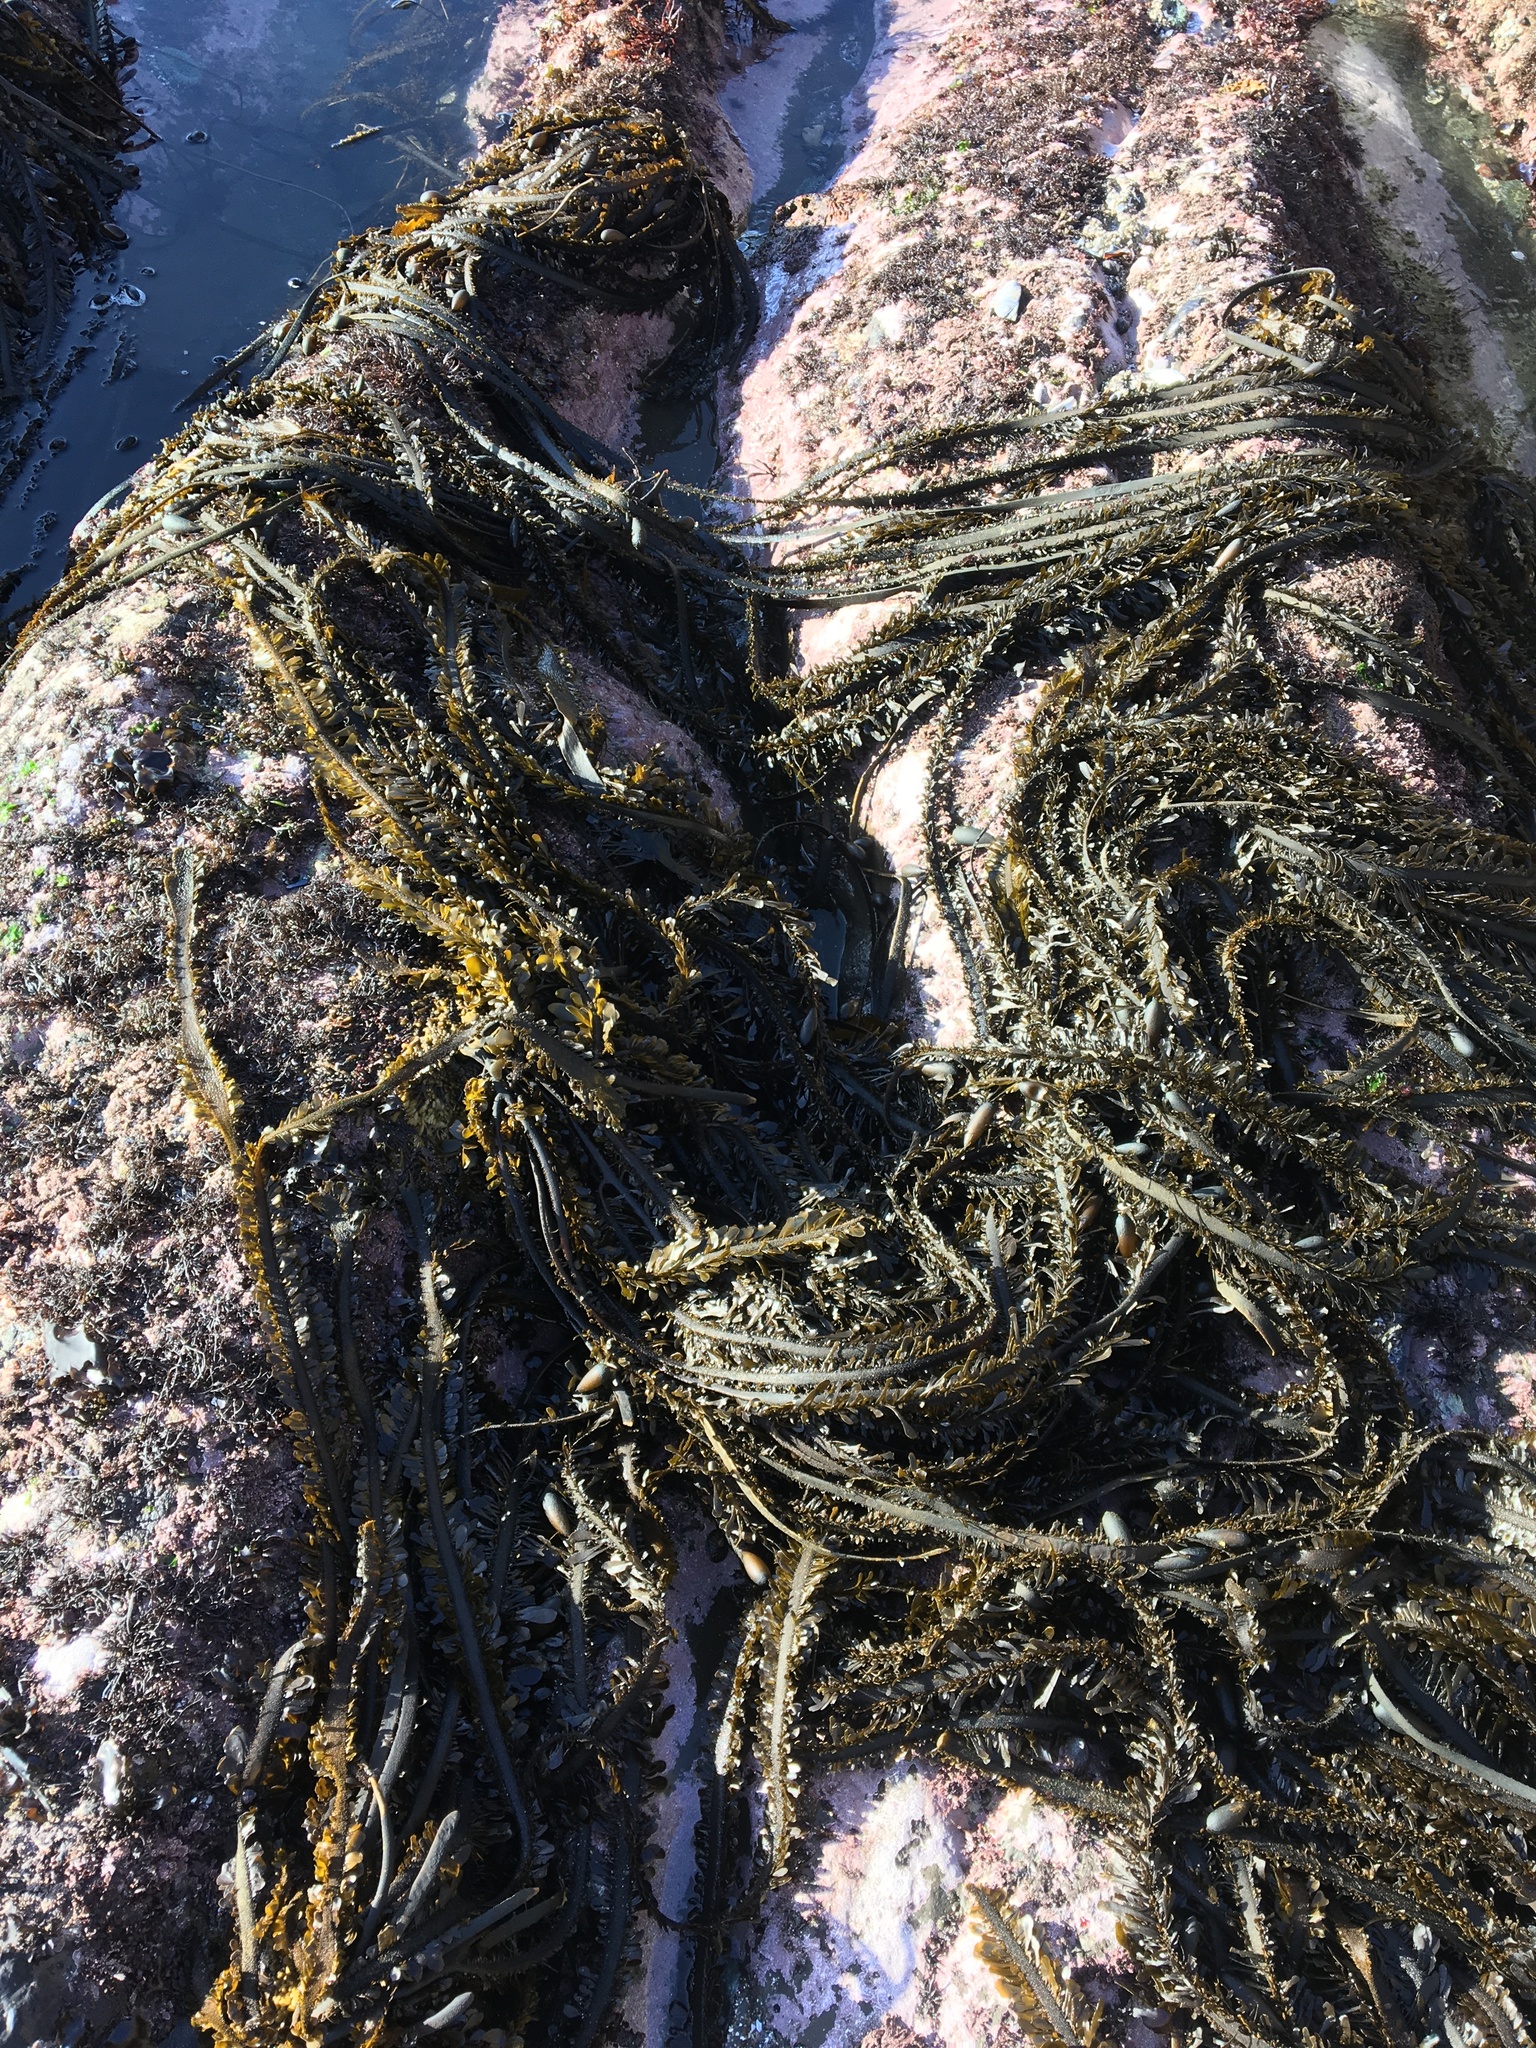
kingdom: Chromista
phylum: Ochrophyta
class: Phaeophyceae
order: Laminariales
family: Lessoniaceae
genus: Egregia
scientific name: Egregia menziesii
